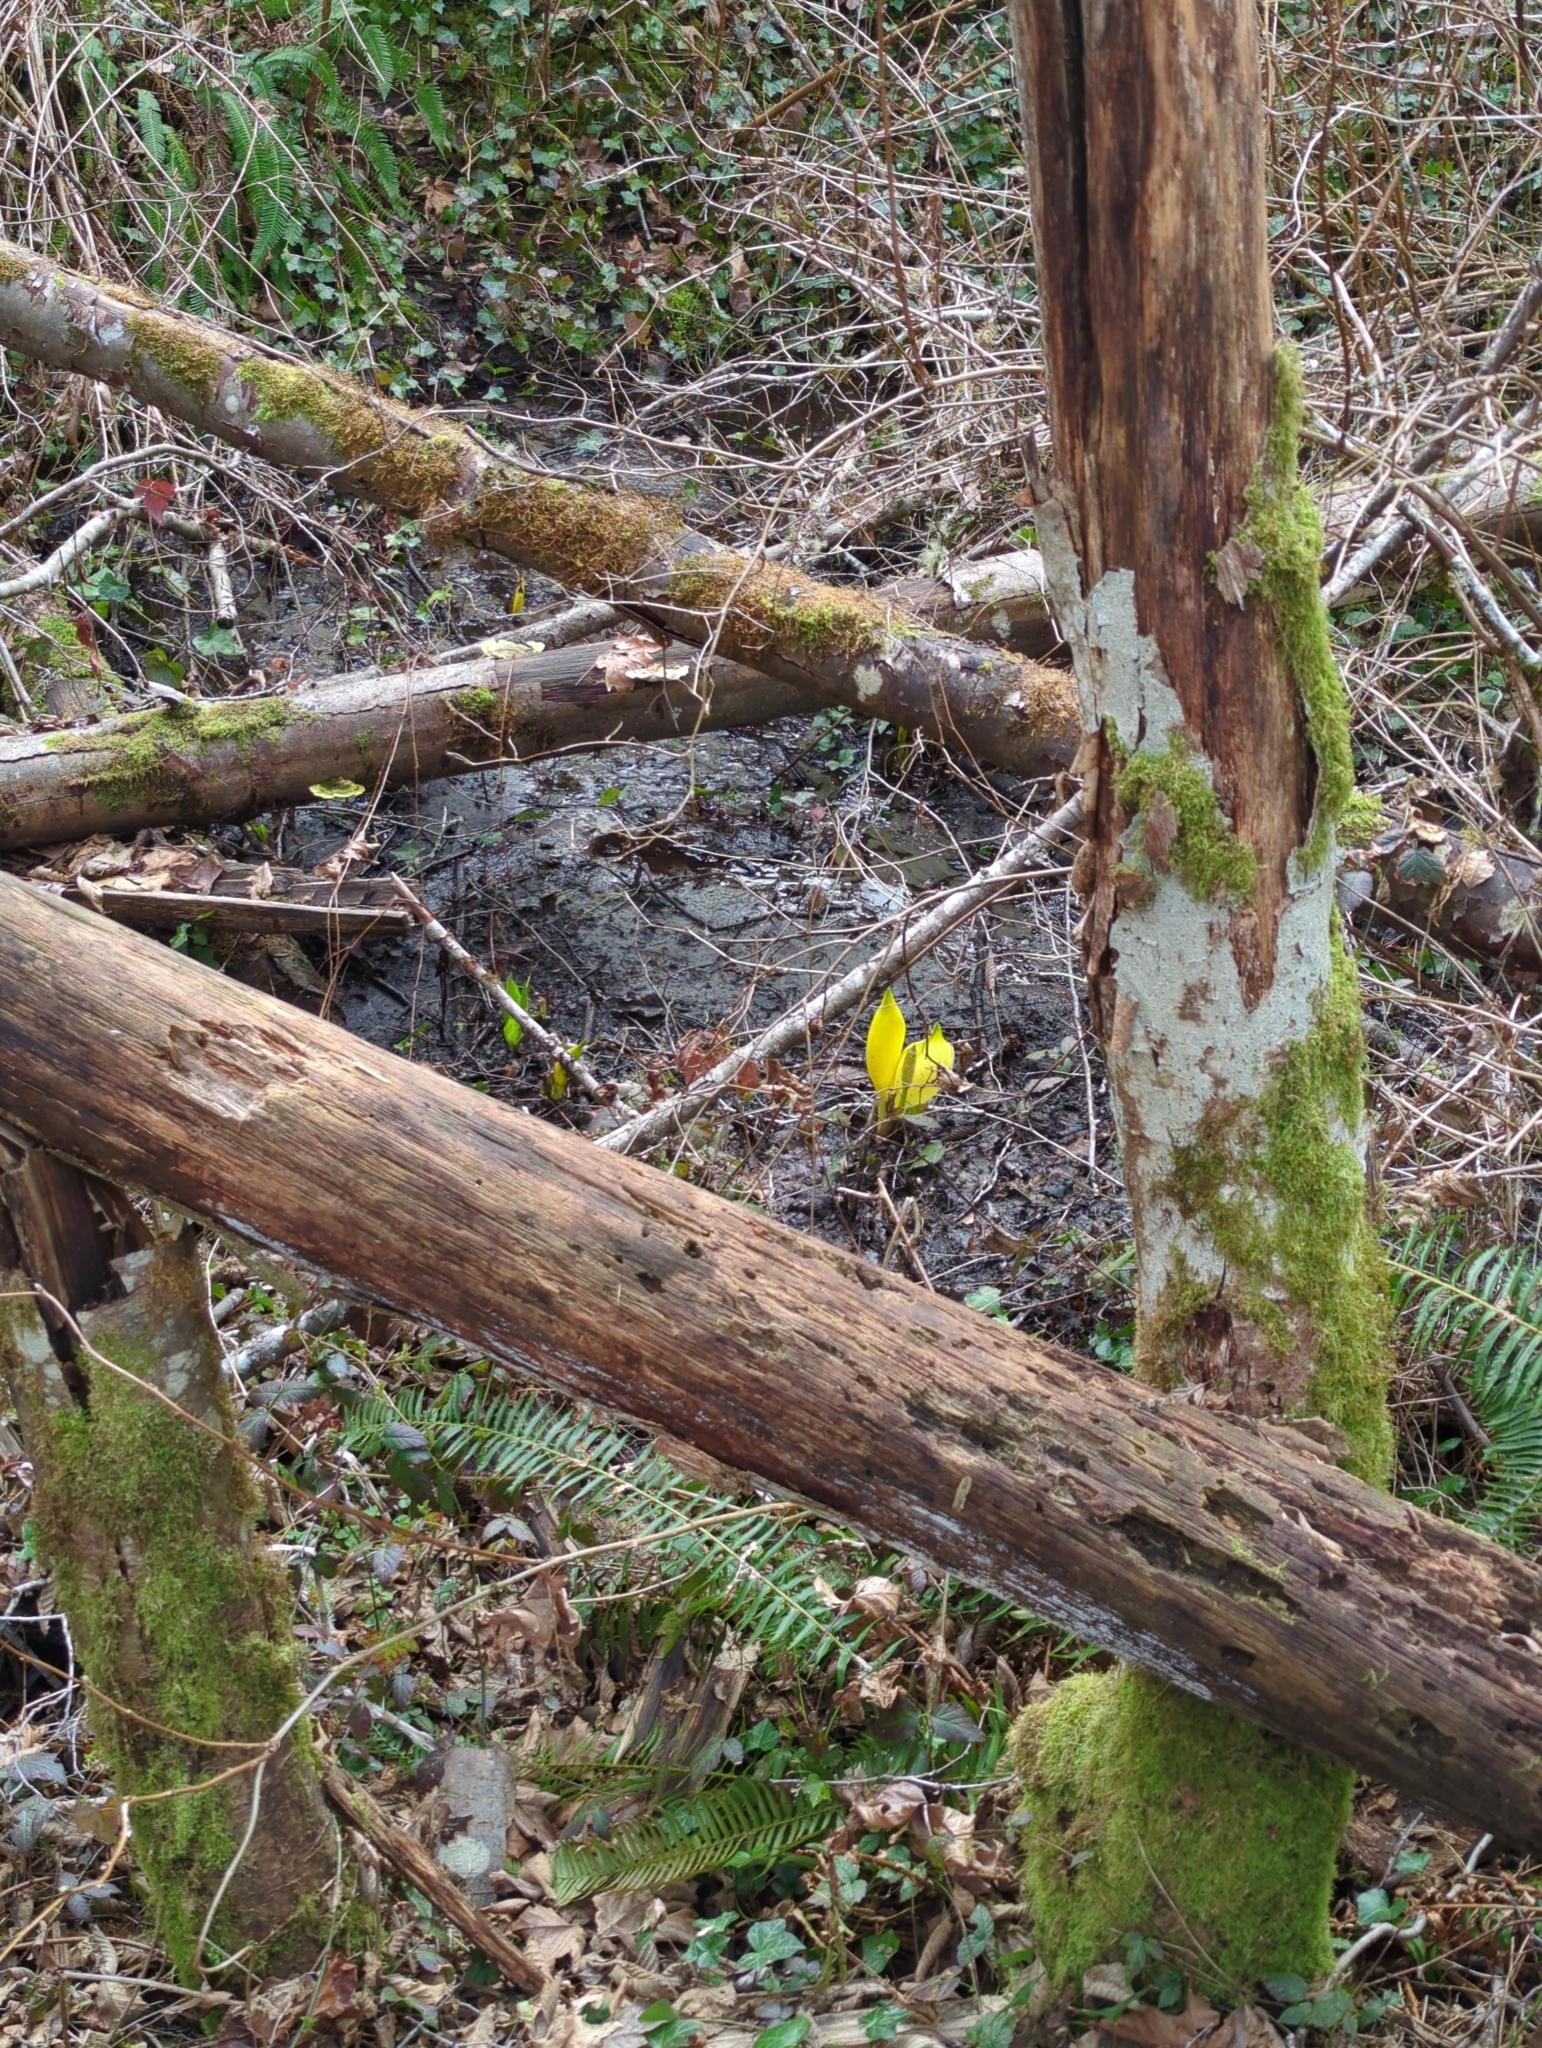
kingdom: Plantae
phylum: Tracheophyta
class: Liliopsida
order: Alismatales
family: Araceae
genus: Lysichiton
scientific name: Lysichiton americanus
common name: American skunk cabbage
